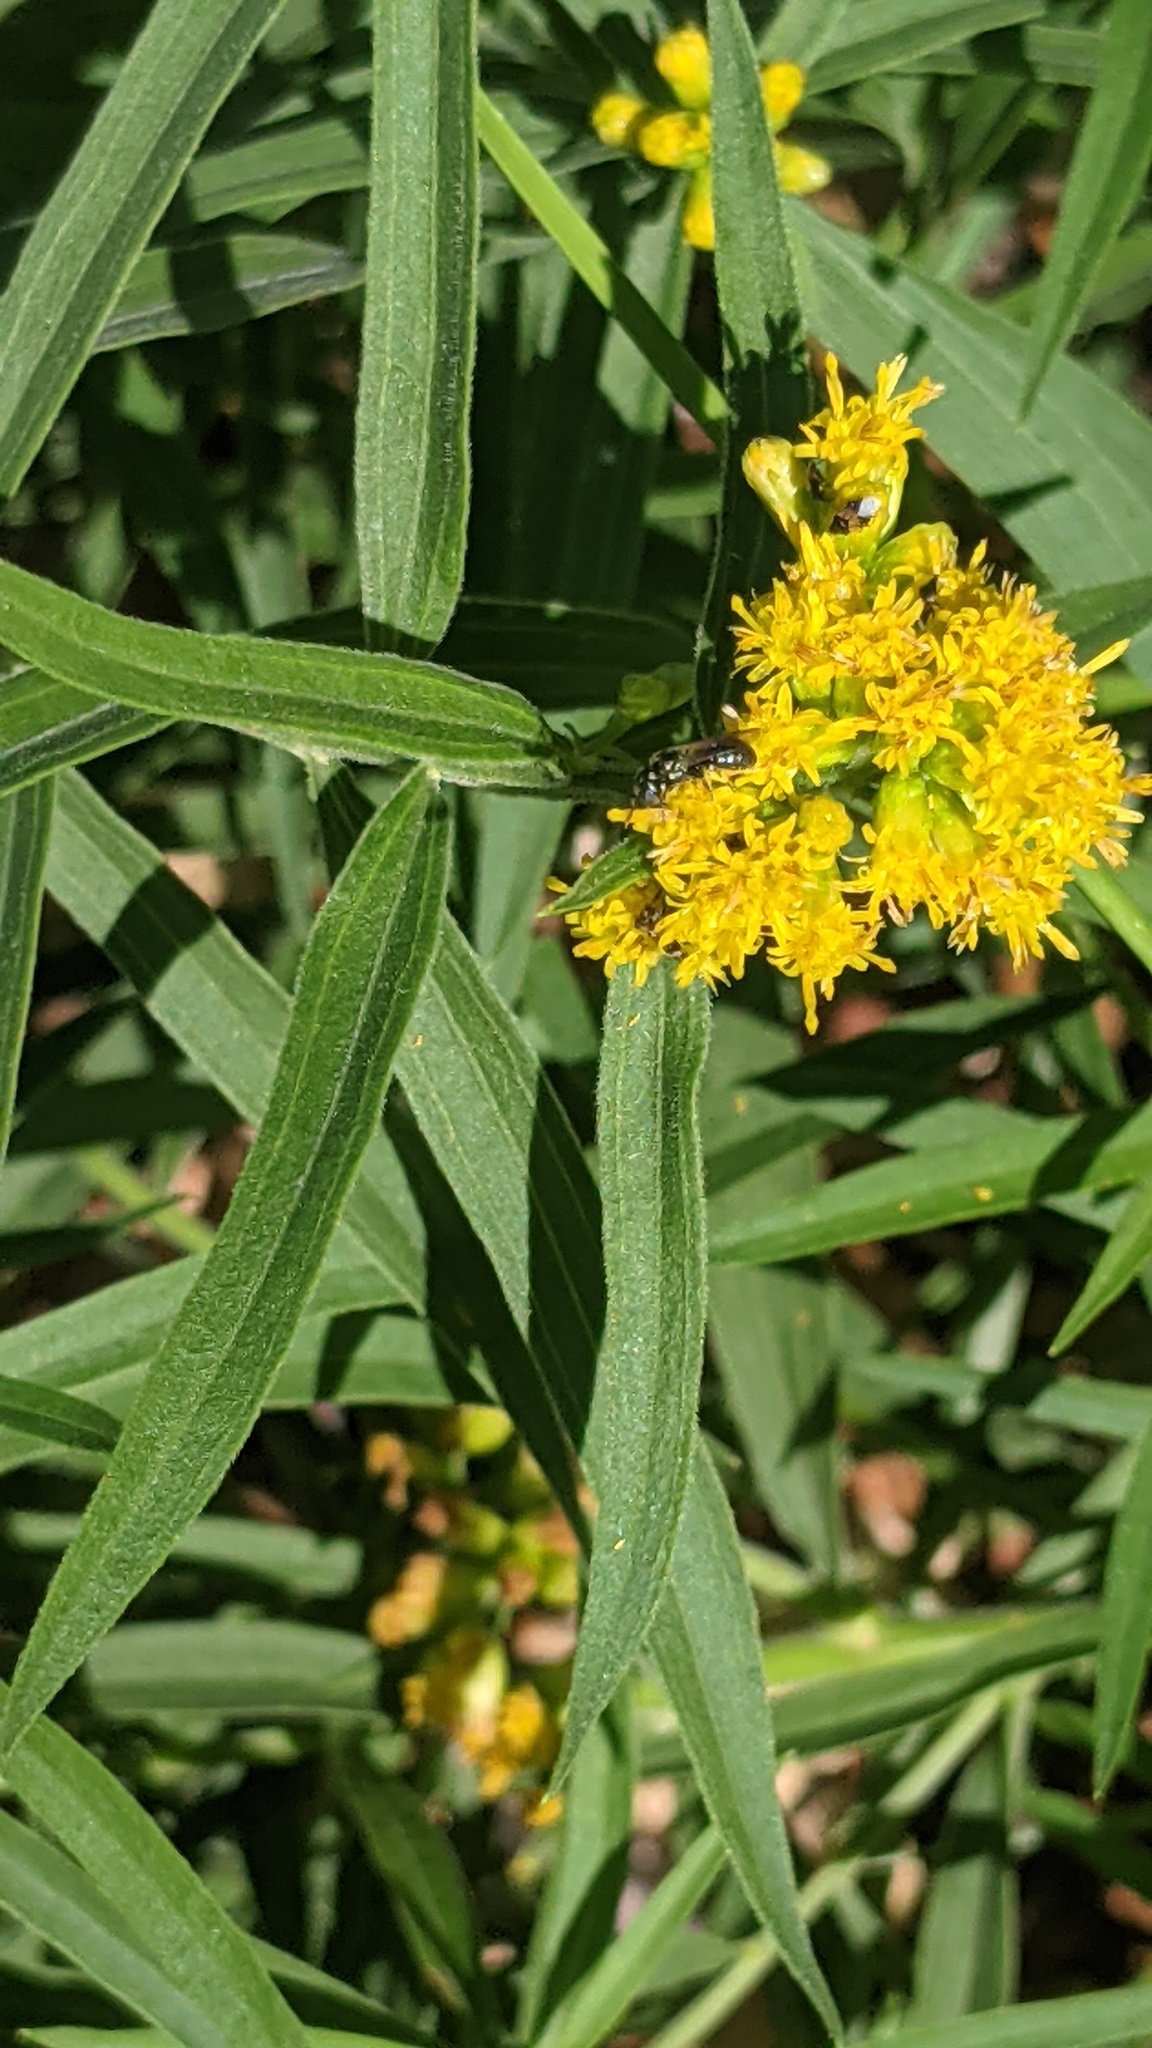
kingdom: Animalia
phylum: Arthropoda
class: Insecta
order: Hymenoptera
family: Apidae
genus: Zadontomerus
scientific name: Zadontomerus
